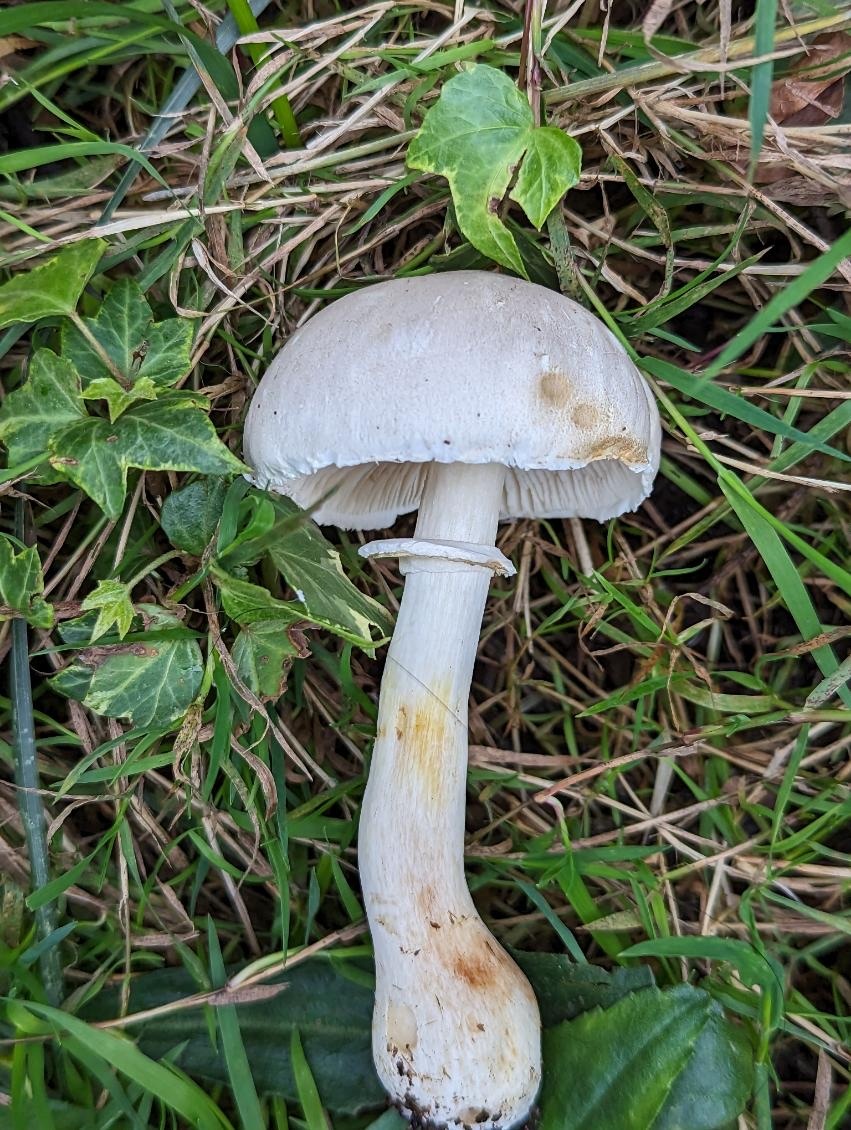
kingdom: Fungi
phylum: Basidiomycota
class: Agaricomycetes
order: Agaricales
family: Agaricaceae
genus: Leucoagaricus
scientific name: Leucoagaricus leucothites
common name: White dapperling
